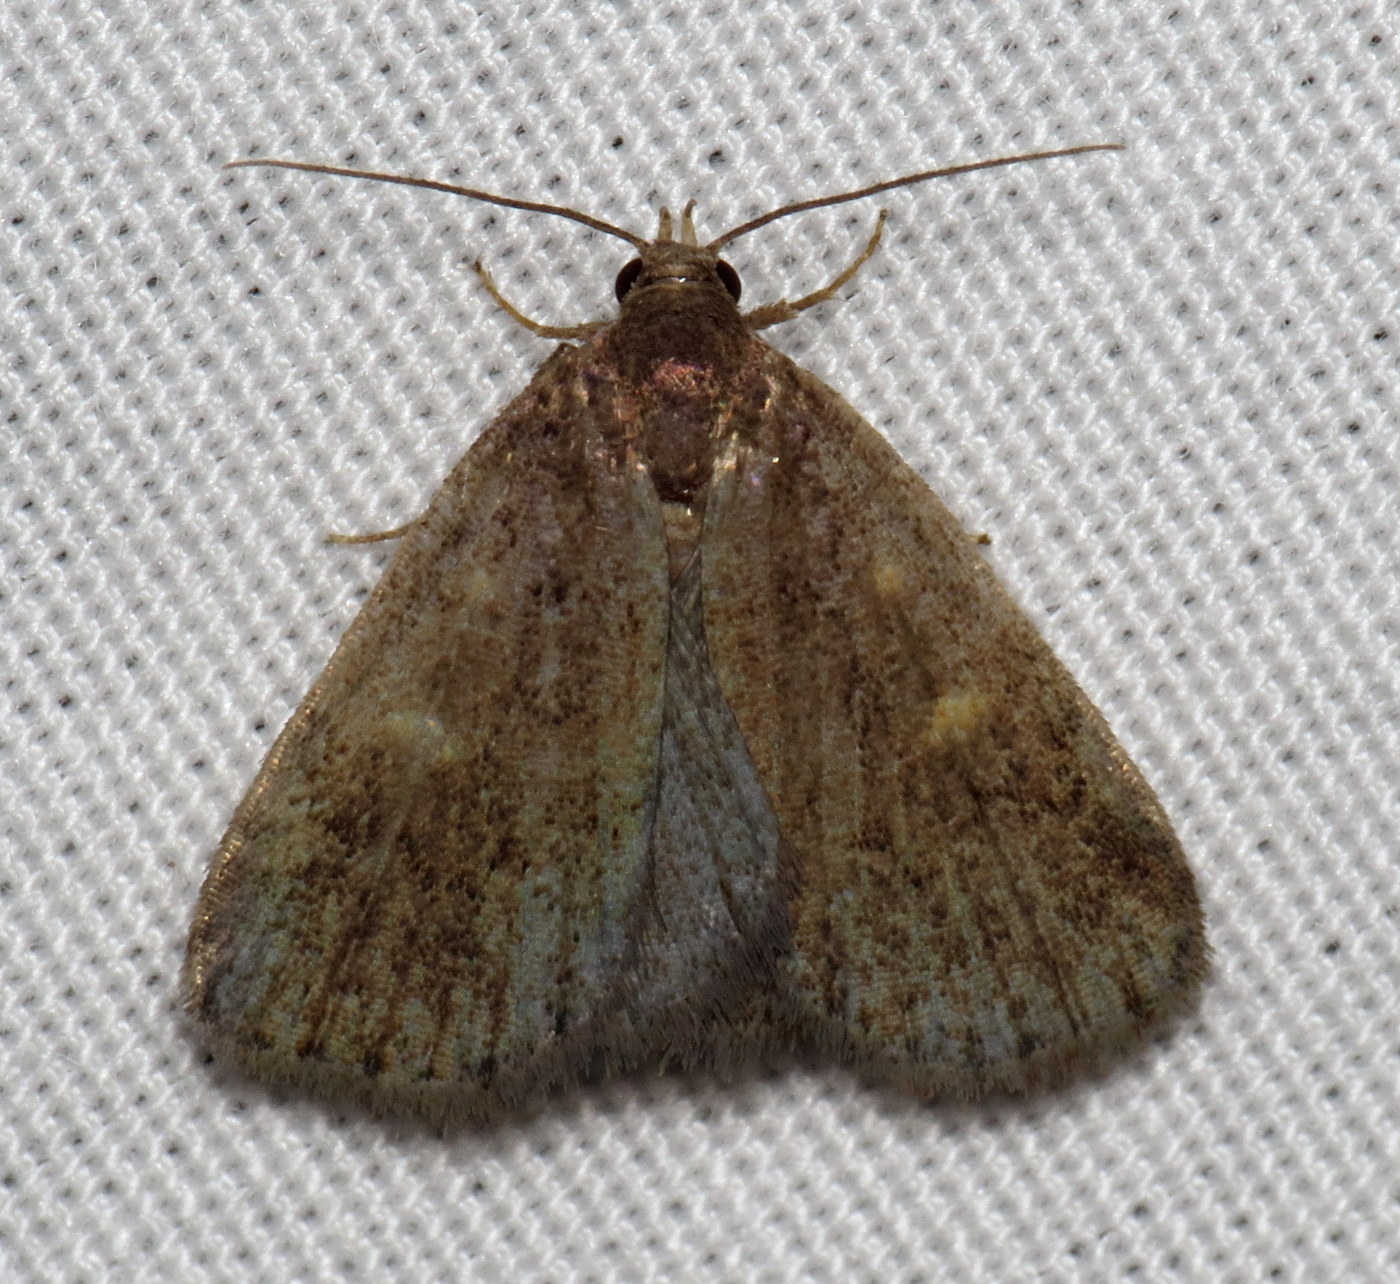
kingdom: Animalia
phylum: Arthropoda
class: Insecta
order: Lepidoptera
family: Erebidae
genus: Idia
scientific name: Idia diminuendis
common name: Orange-spotted idia moth
